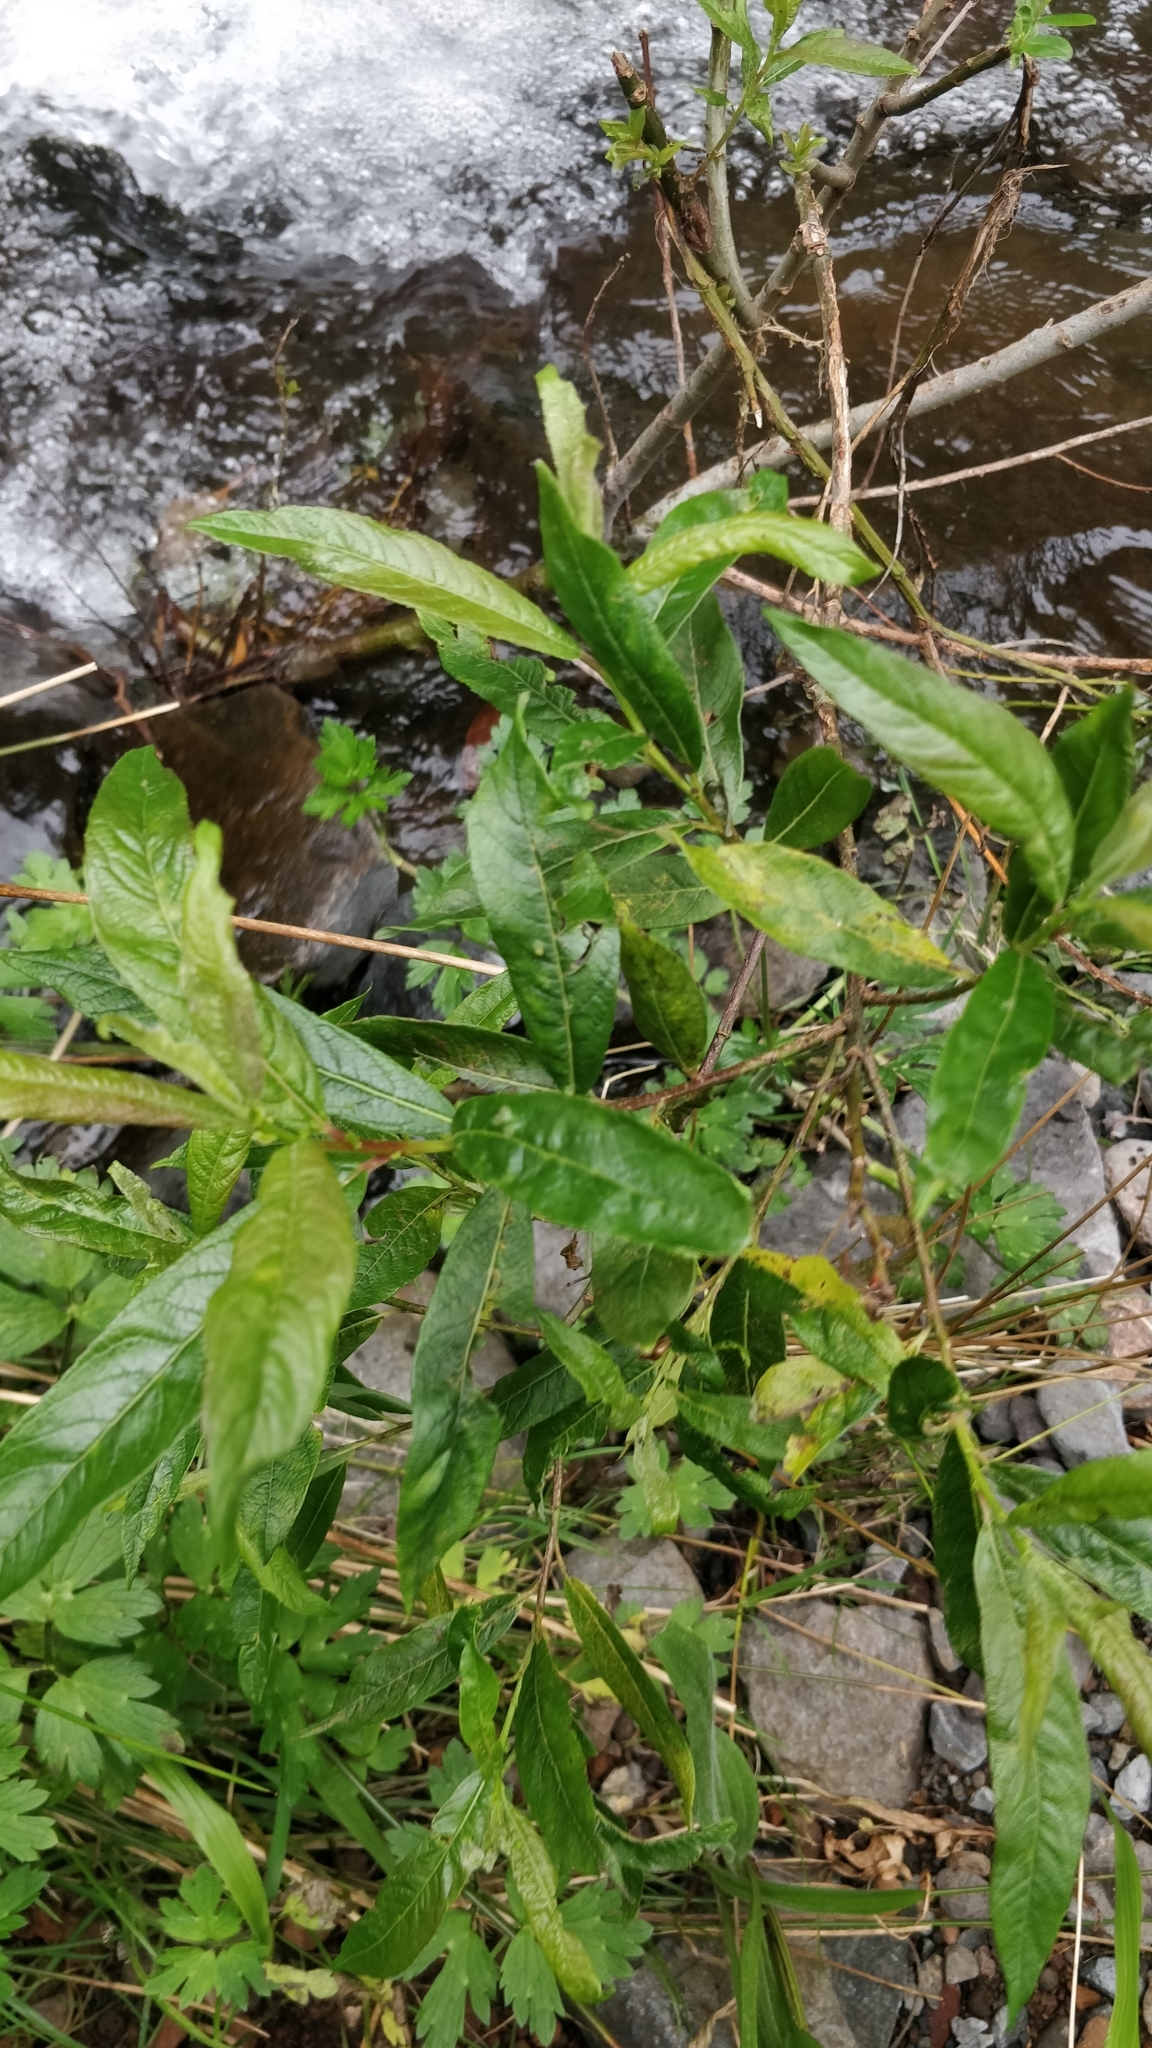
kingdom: Plantae
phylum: Tracheophyta
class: Magnoliopsida
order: Malpighiales
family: Salicaceae
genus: Salix
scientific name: Salix canariensis
